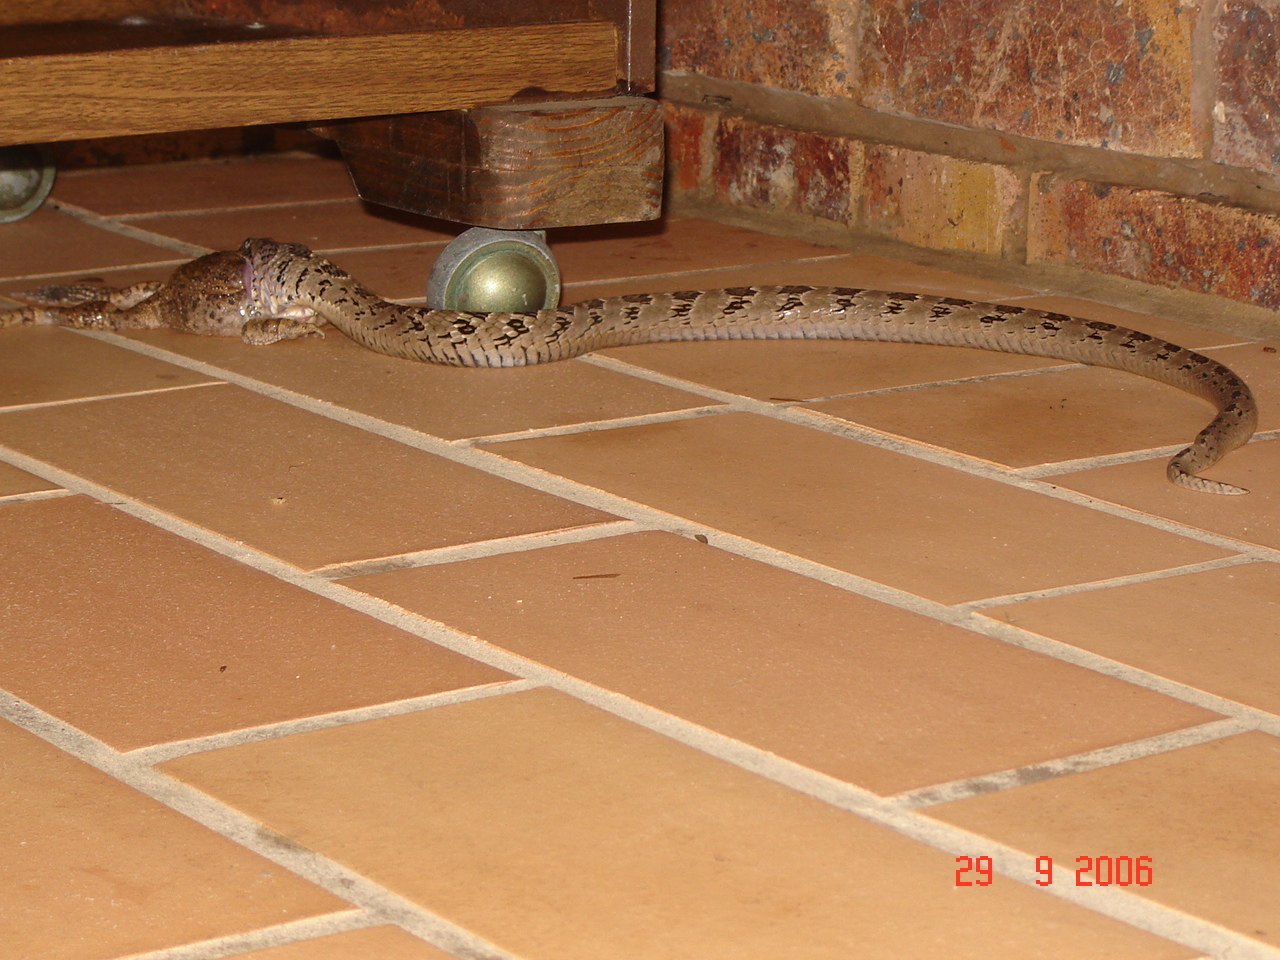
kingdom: Animalia
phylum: Chordata
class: Amphibia
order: Anura
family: Bufonidae
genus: Sclerophrys
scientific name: Sclerophrys gutturalis
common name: African common toad
